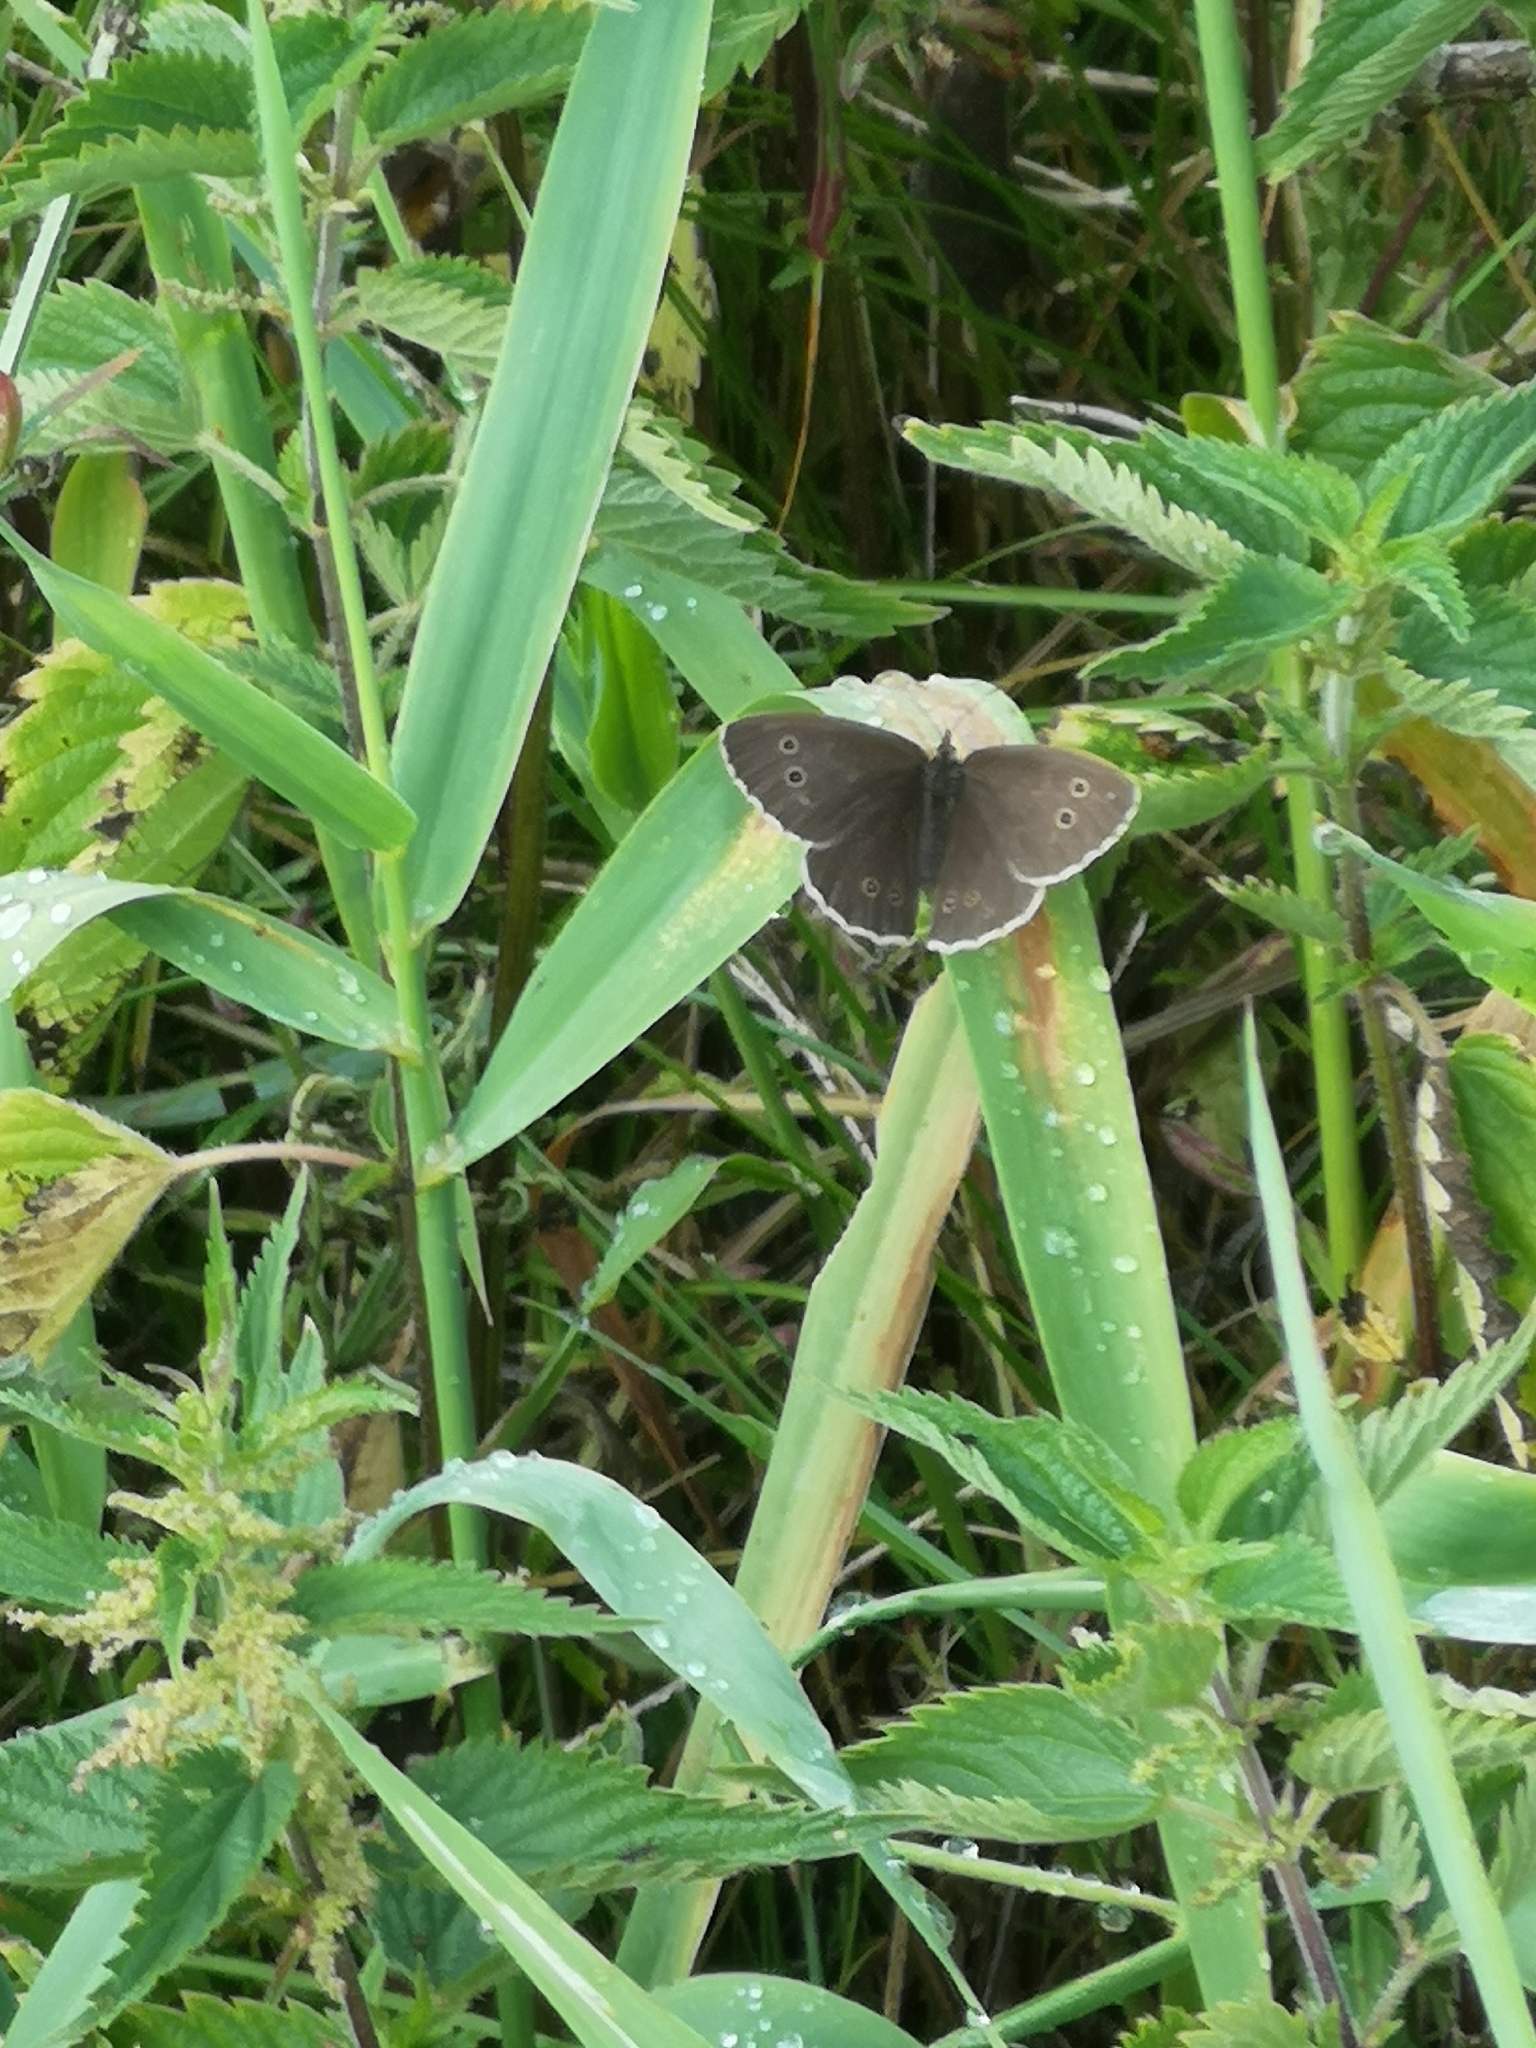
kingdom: Animalia
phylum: Arthropoda
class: Insecta
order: Lepidoptera
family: Nymphalidae
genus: Aphantopus
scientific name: Aphantopus hyperantus
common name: Ringlet
